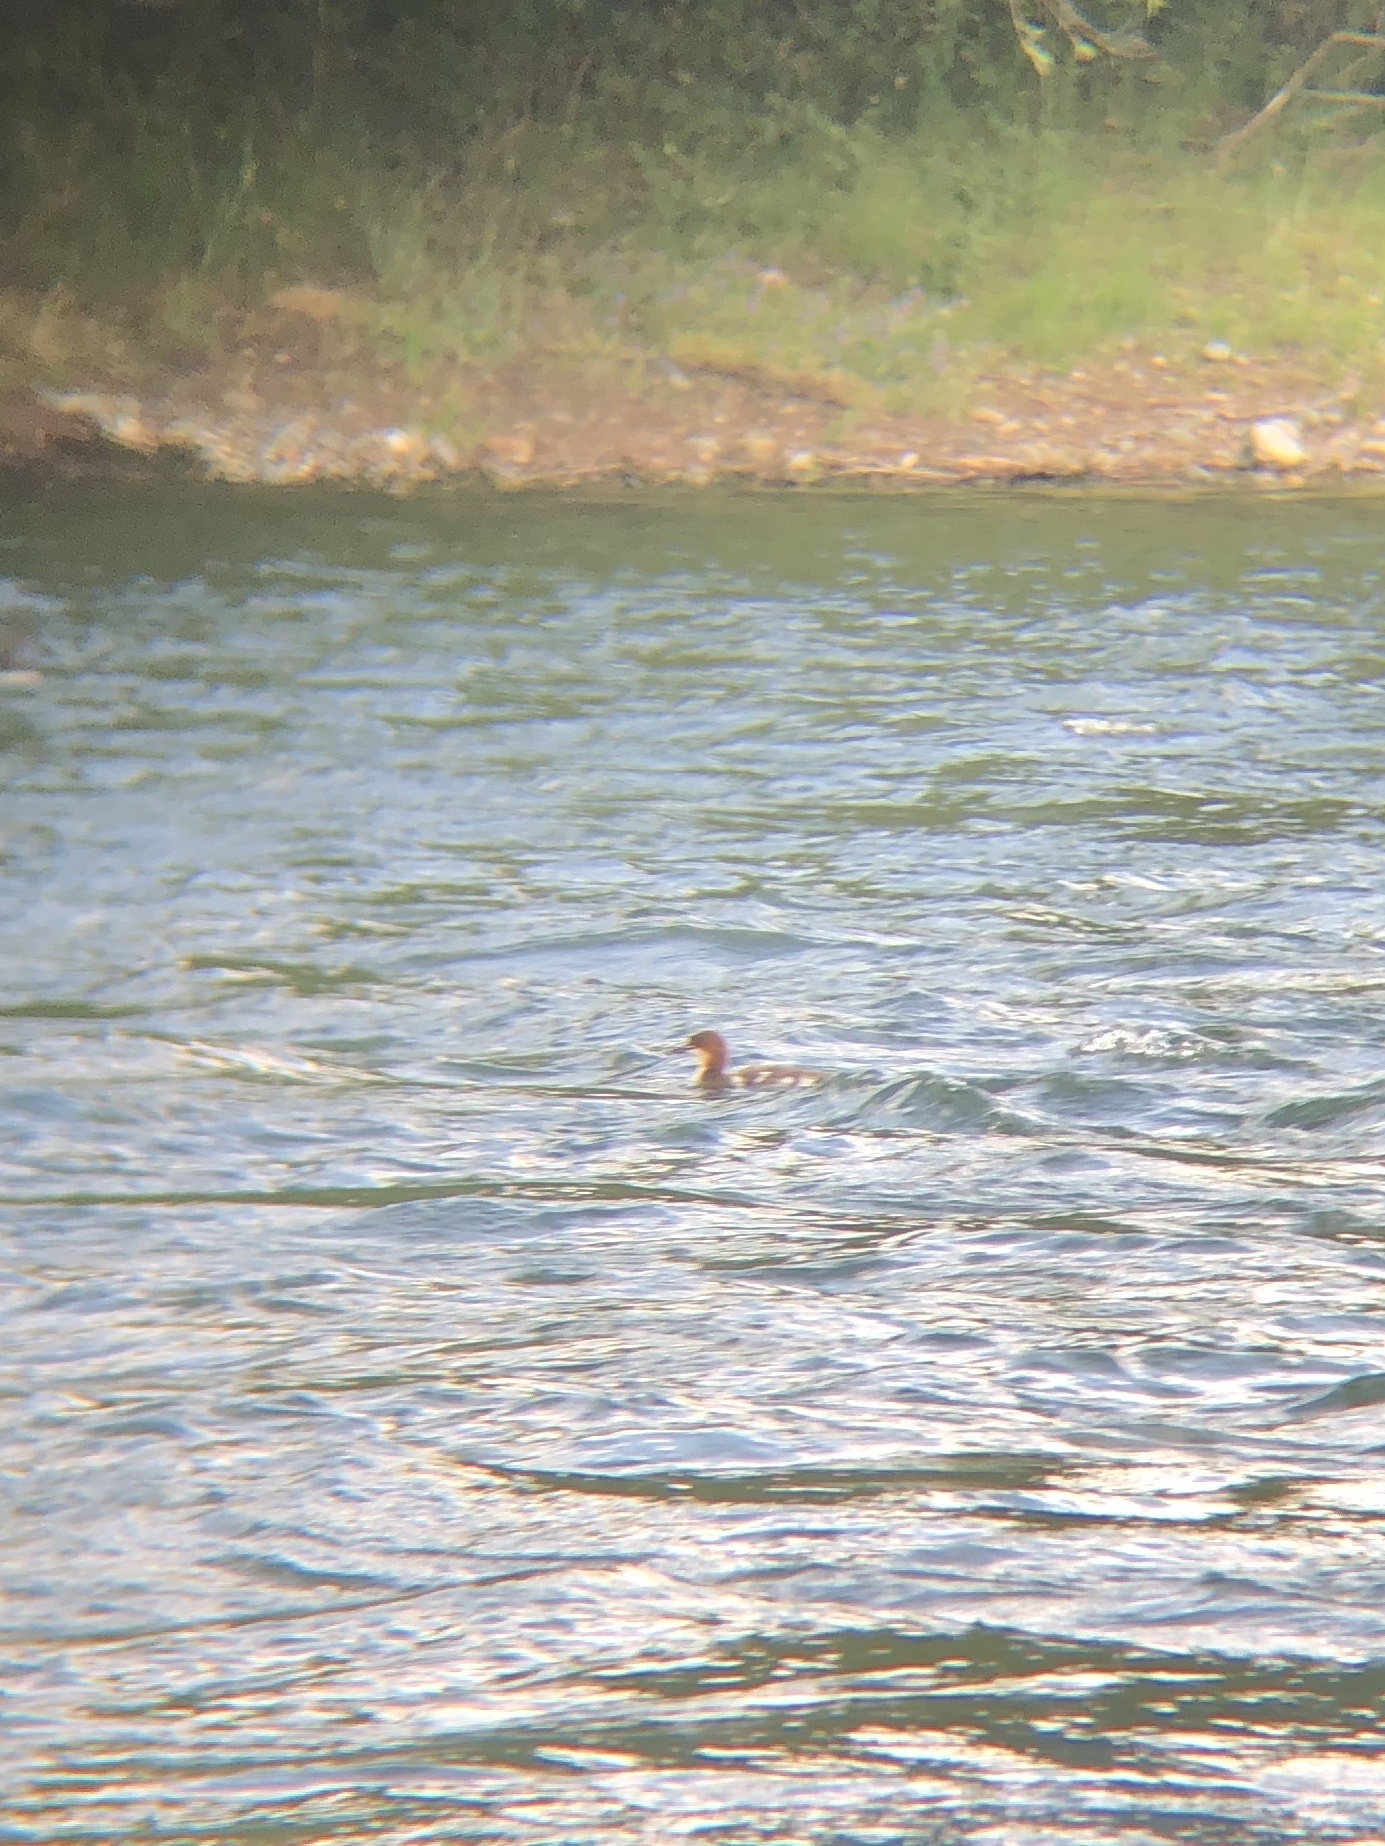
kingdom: Animalia
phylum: Chordata
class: Aves
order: Anseriformes
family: Anatidae
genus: Mergus
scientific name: Mergus merganser
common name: Common merganser
